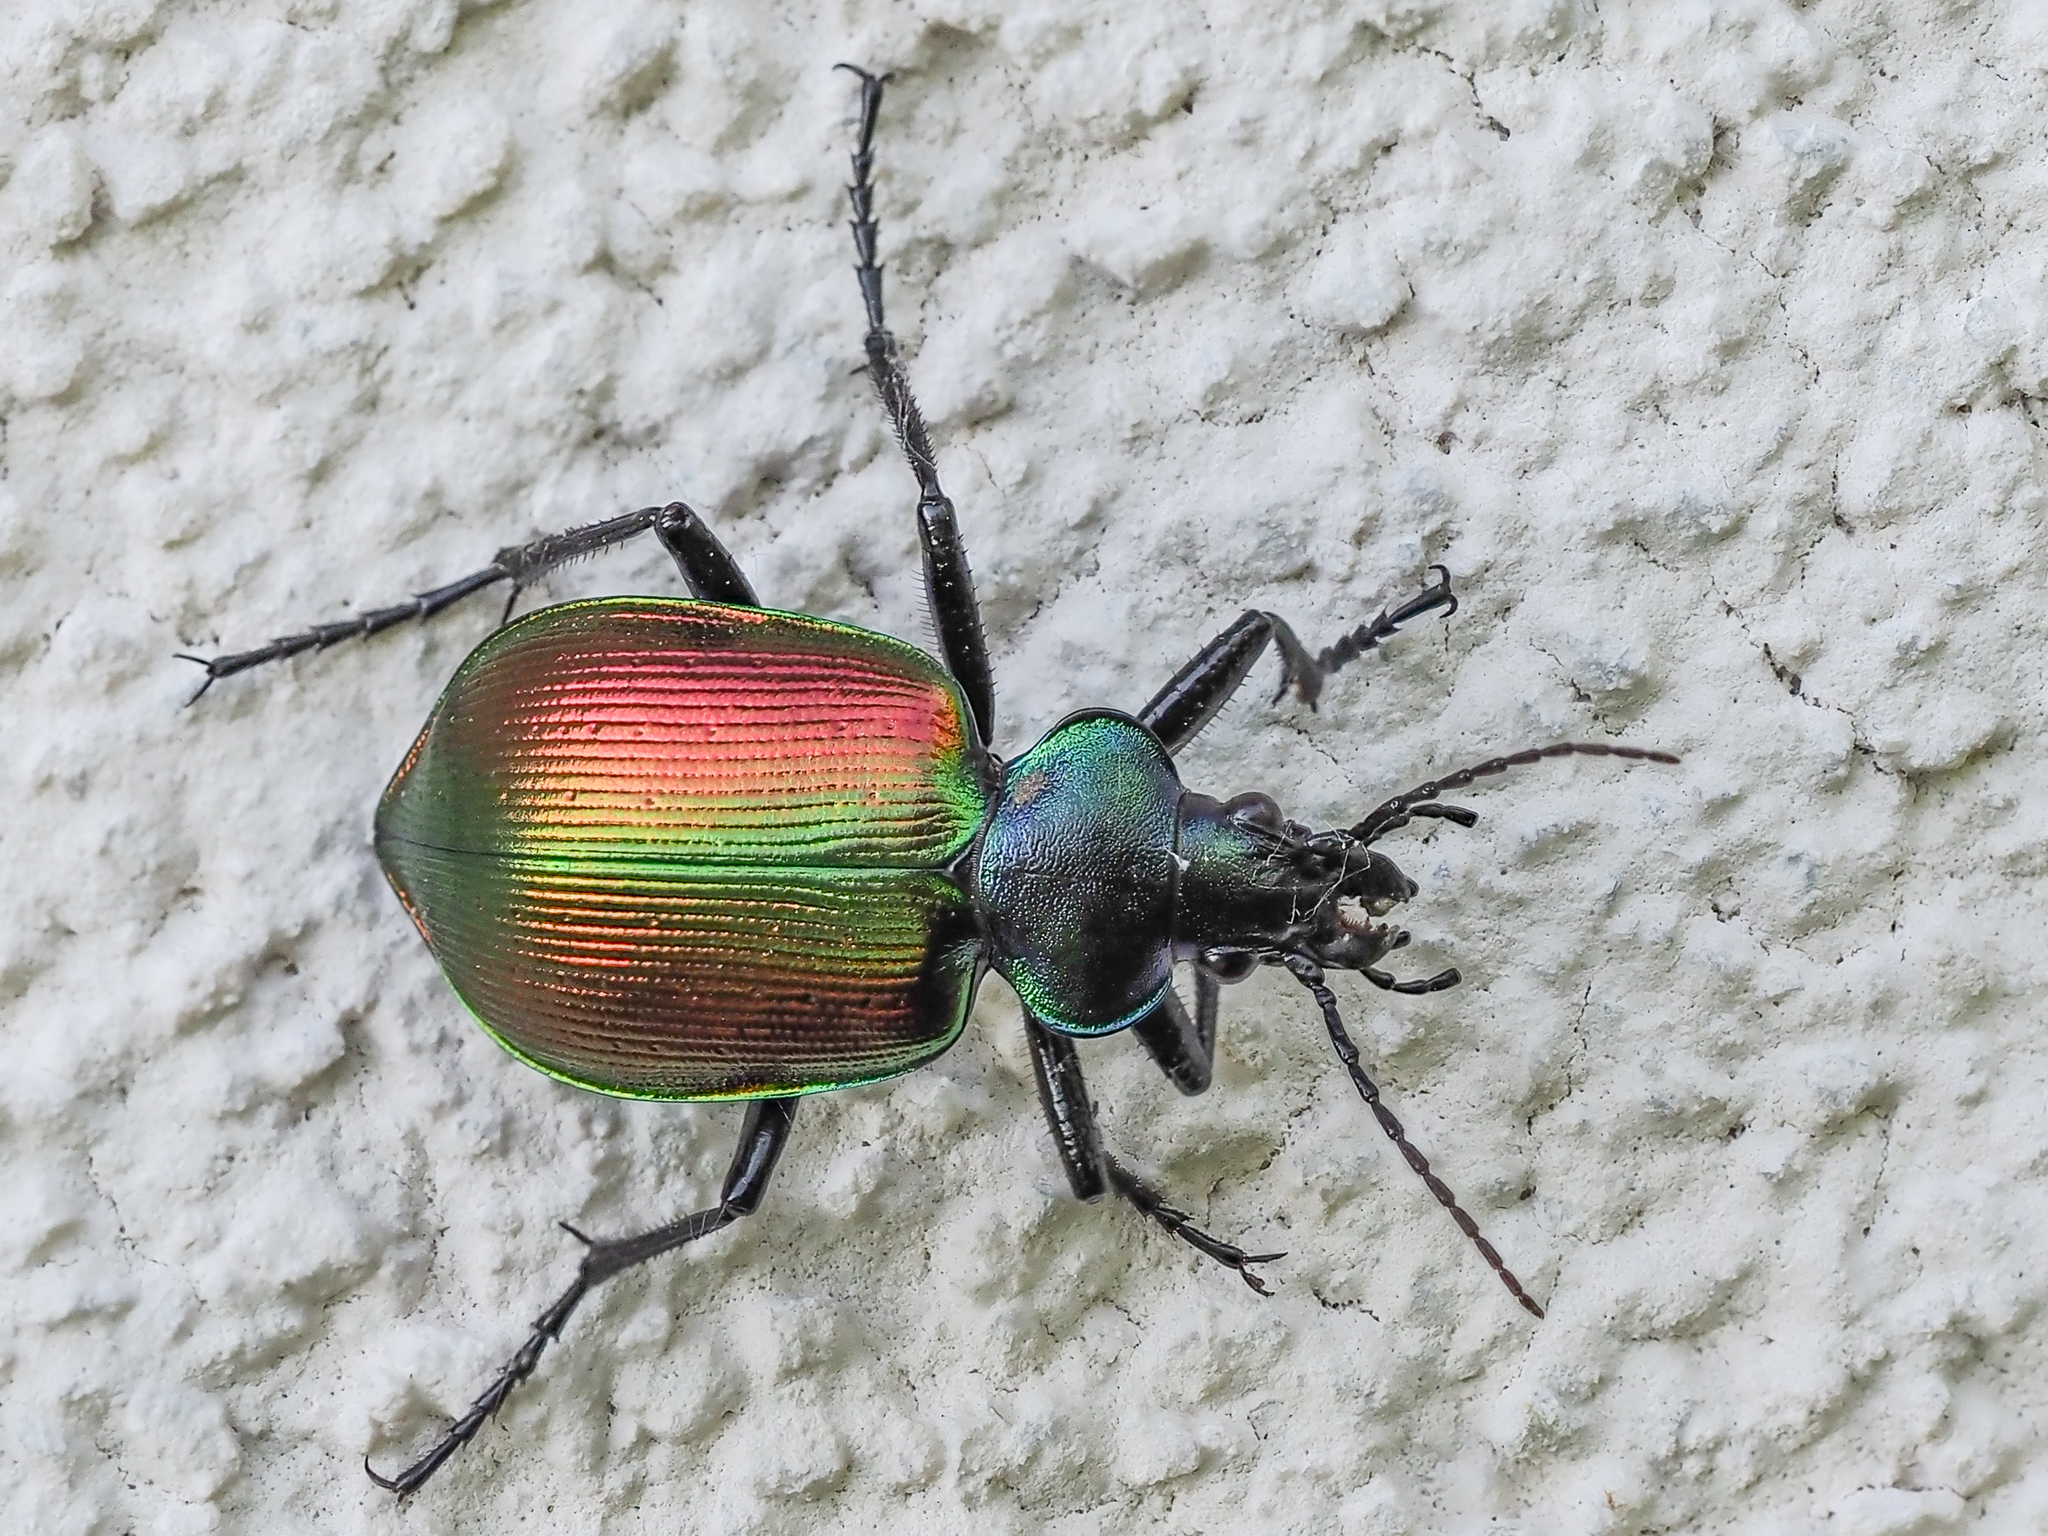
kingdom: Animalia
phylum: Arthropoda
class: Insecta
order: Coleoptera
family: Carabidae
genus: Calosoma
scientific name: Calosoma sycophanta
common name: Forest caterpillar hunter
